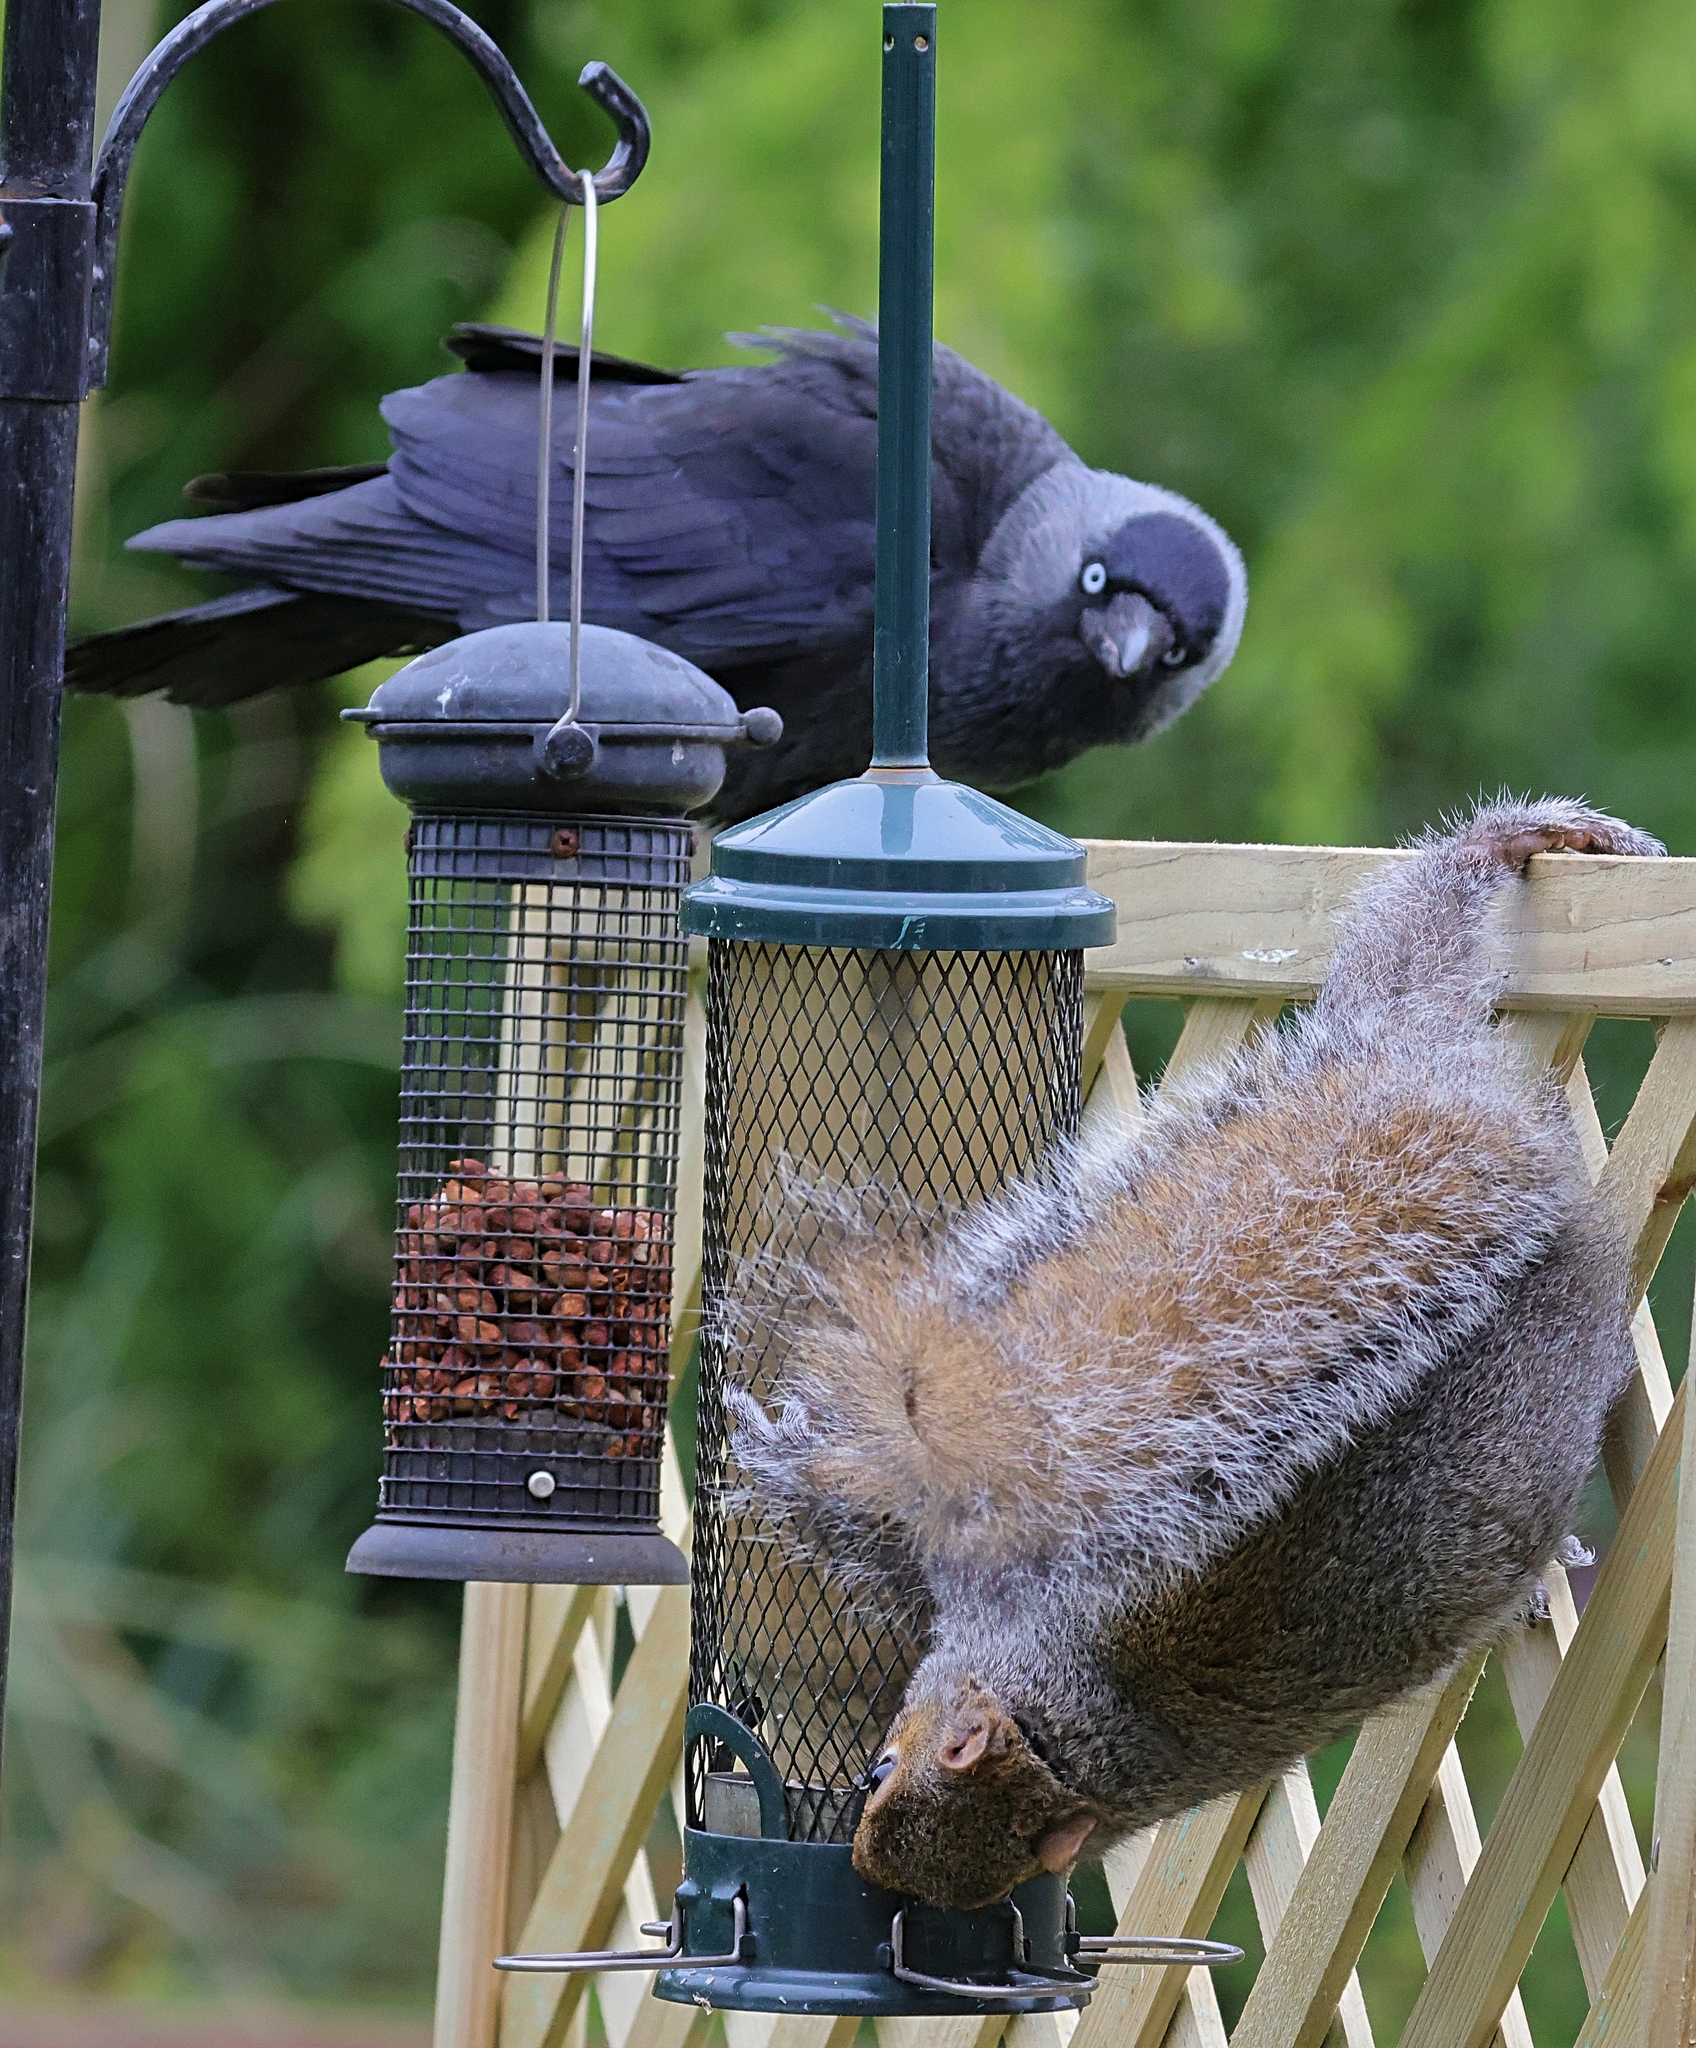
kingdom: Animalia
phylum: Chordata
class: Aves
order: Passeriformes
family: Corvidae
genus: Coloeus
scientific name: Coloeus monedula
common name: Western jackdaw
